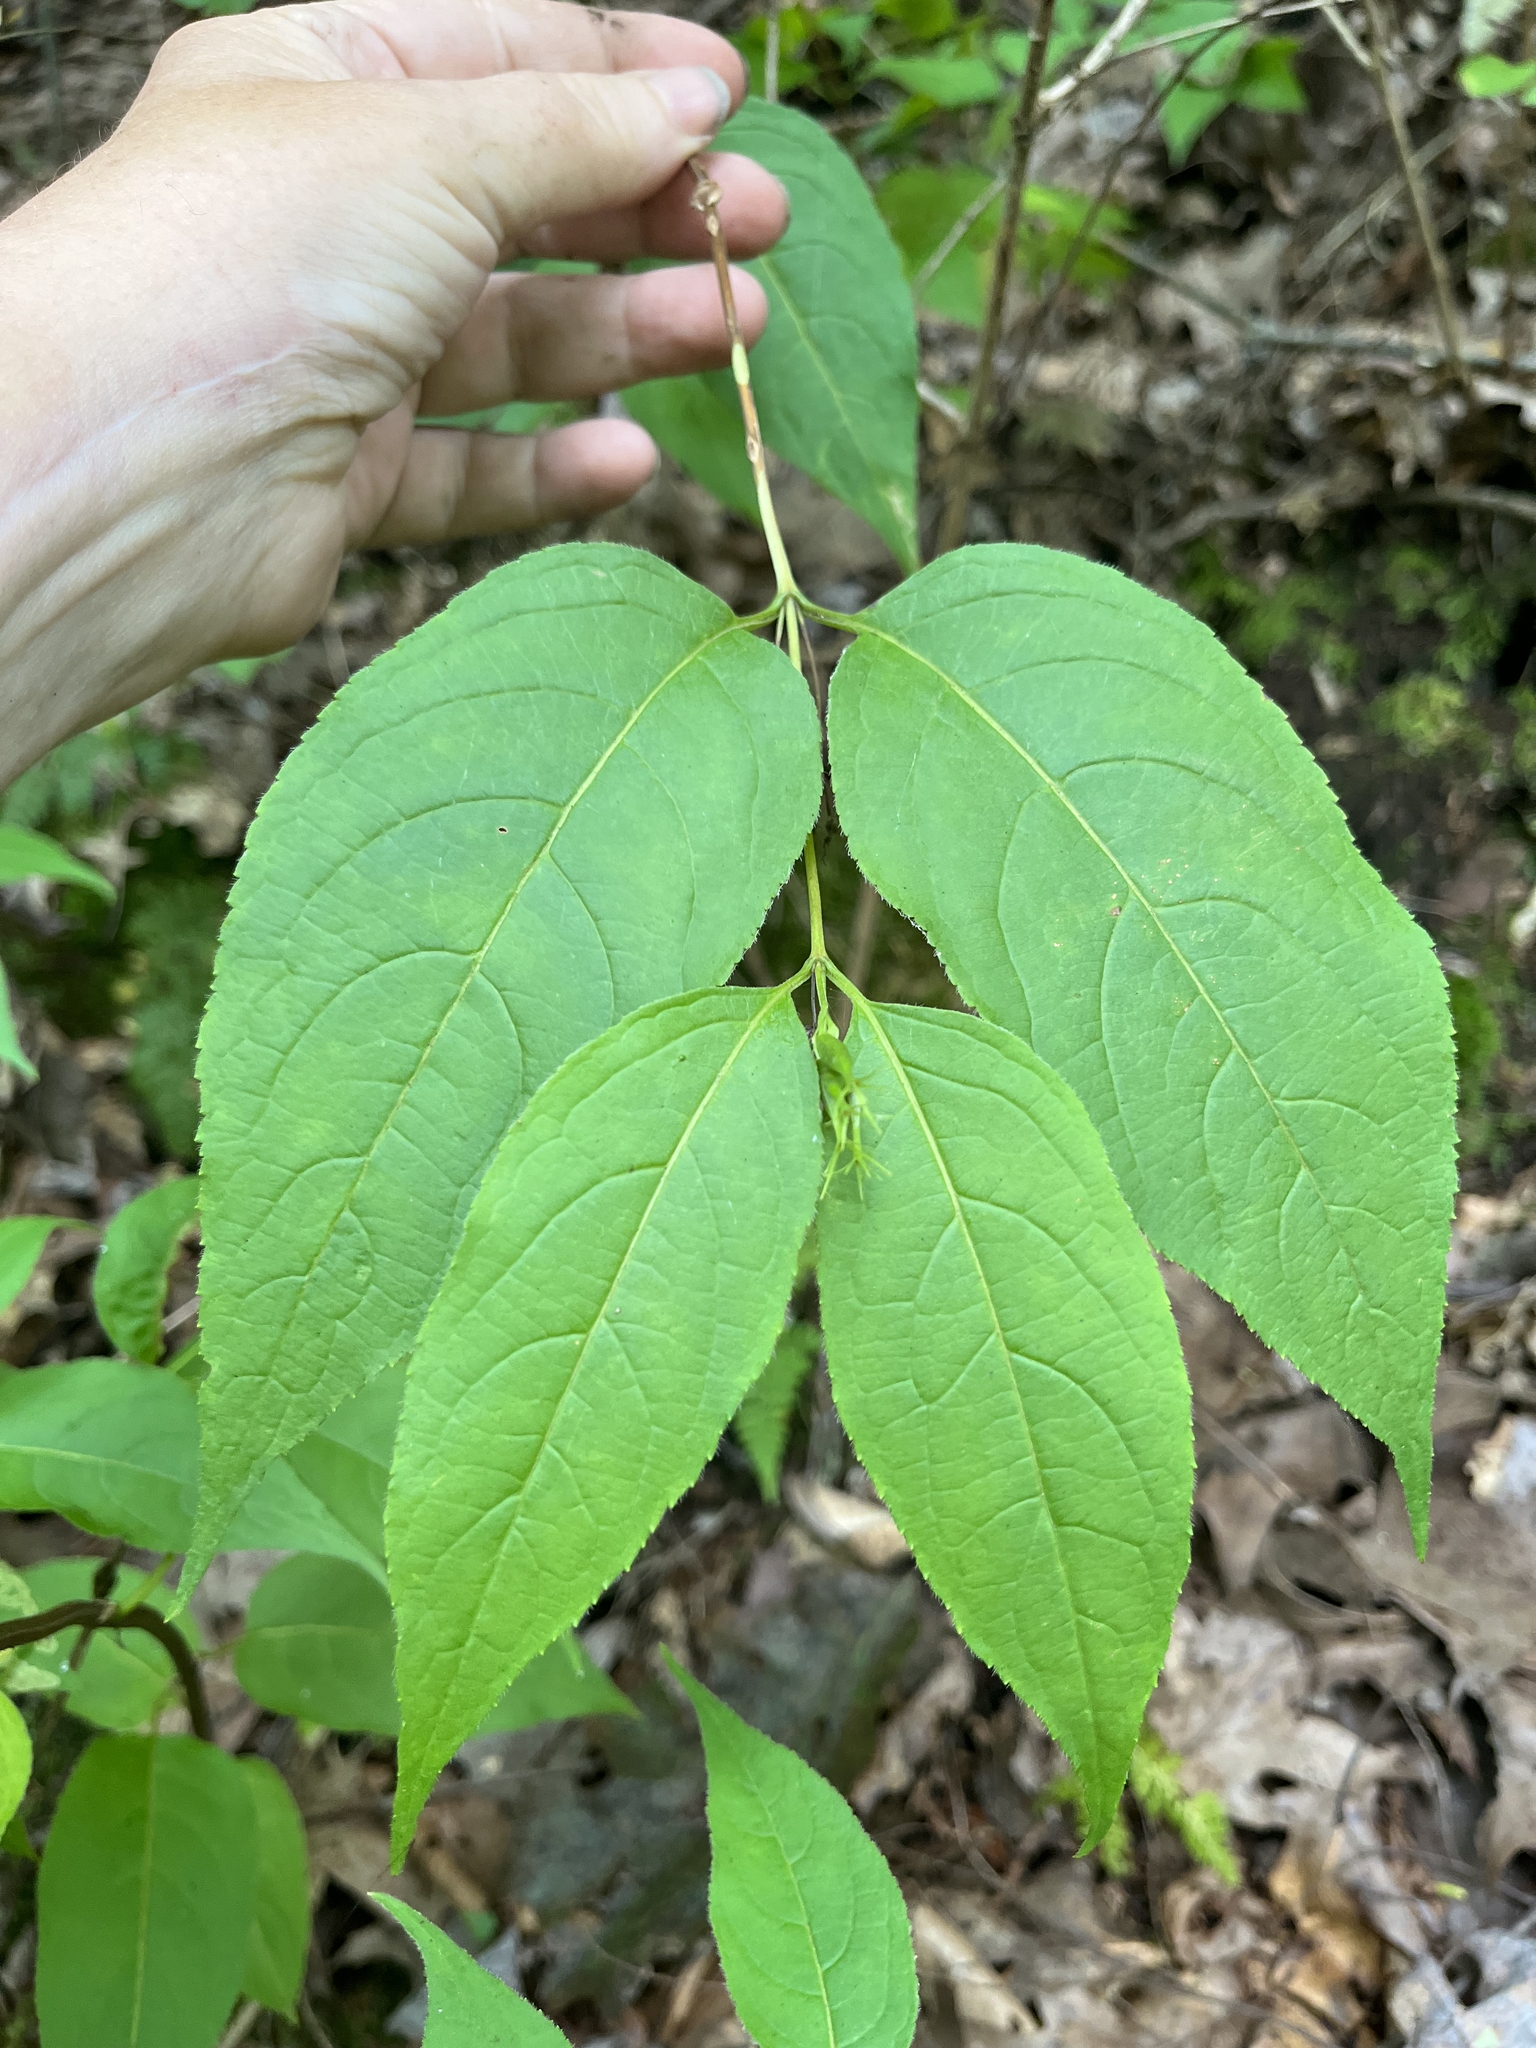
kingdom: Plantae
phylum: Tracheophyta
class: Magnoliopsida
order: Dipsacales
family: Caprifoliaceae
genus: Diervilla
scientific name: Diervilla lonicera
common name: Bush-honeysuckle
